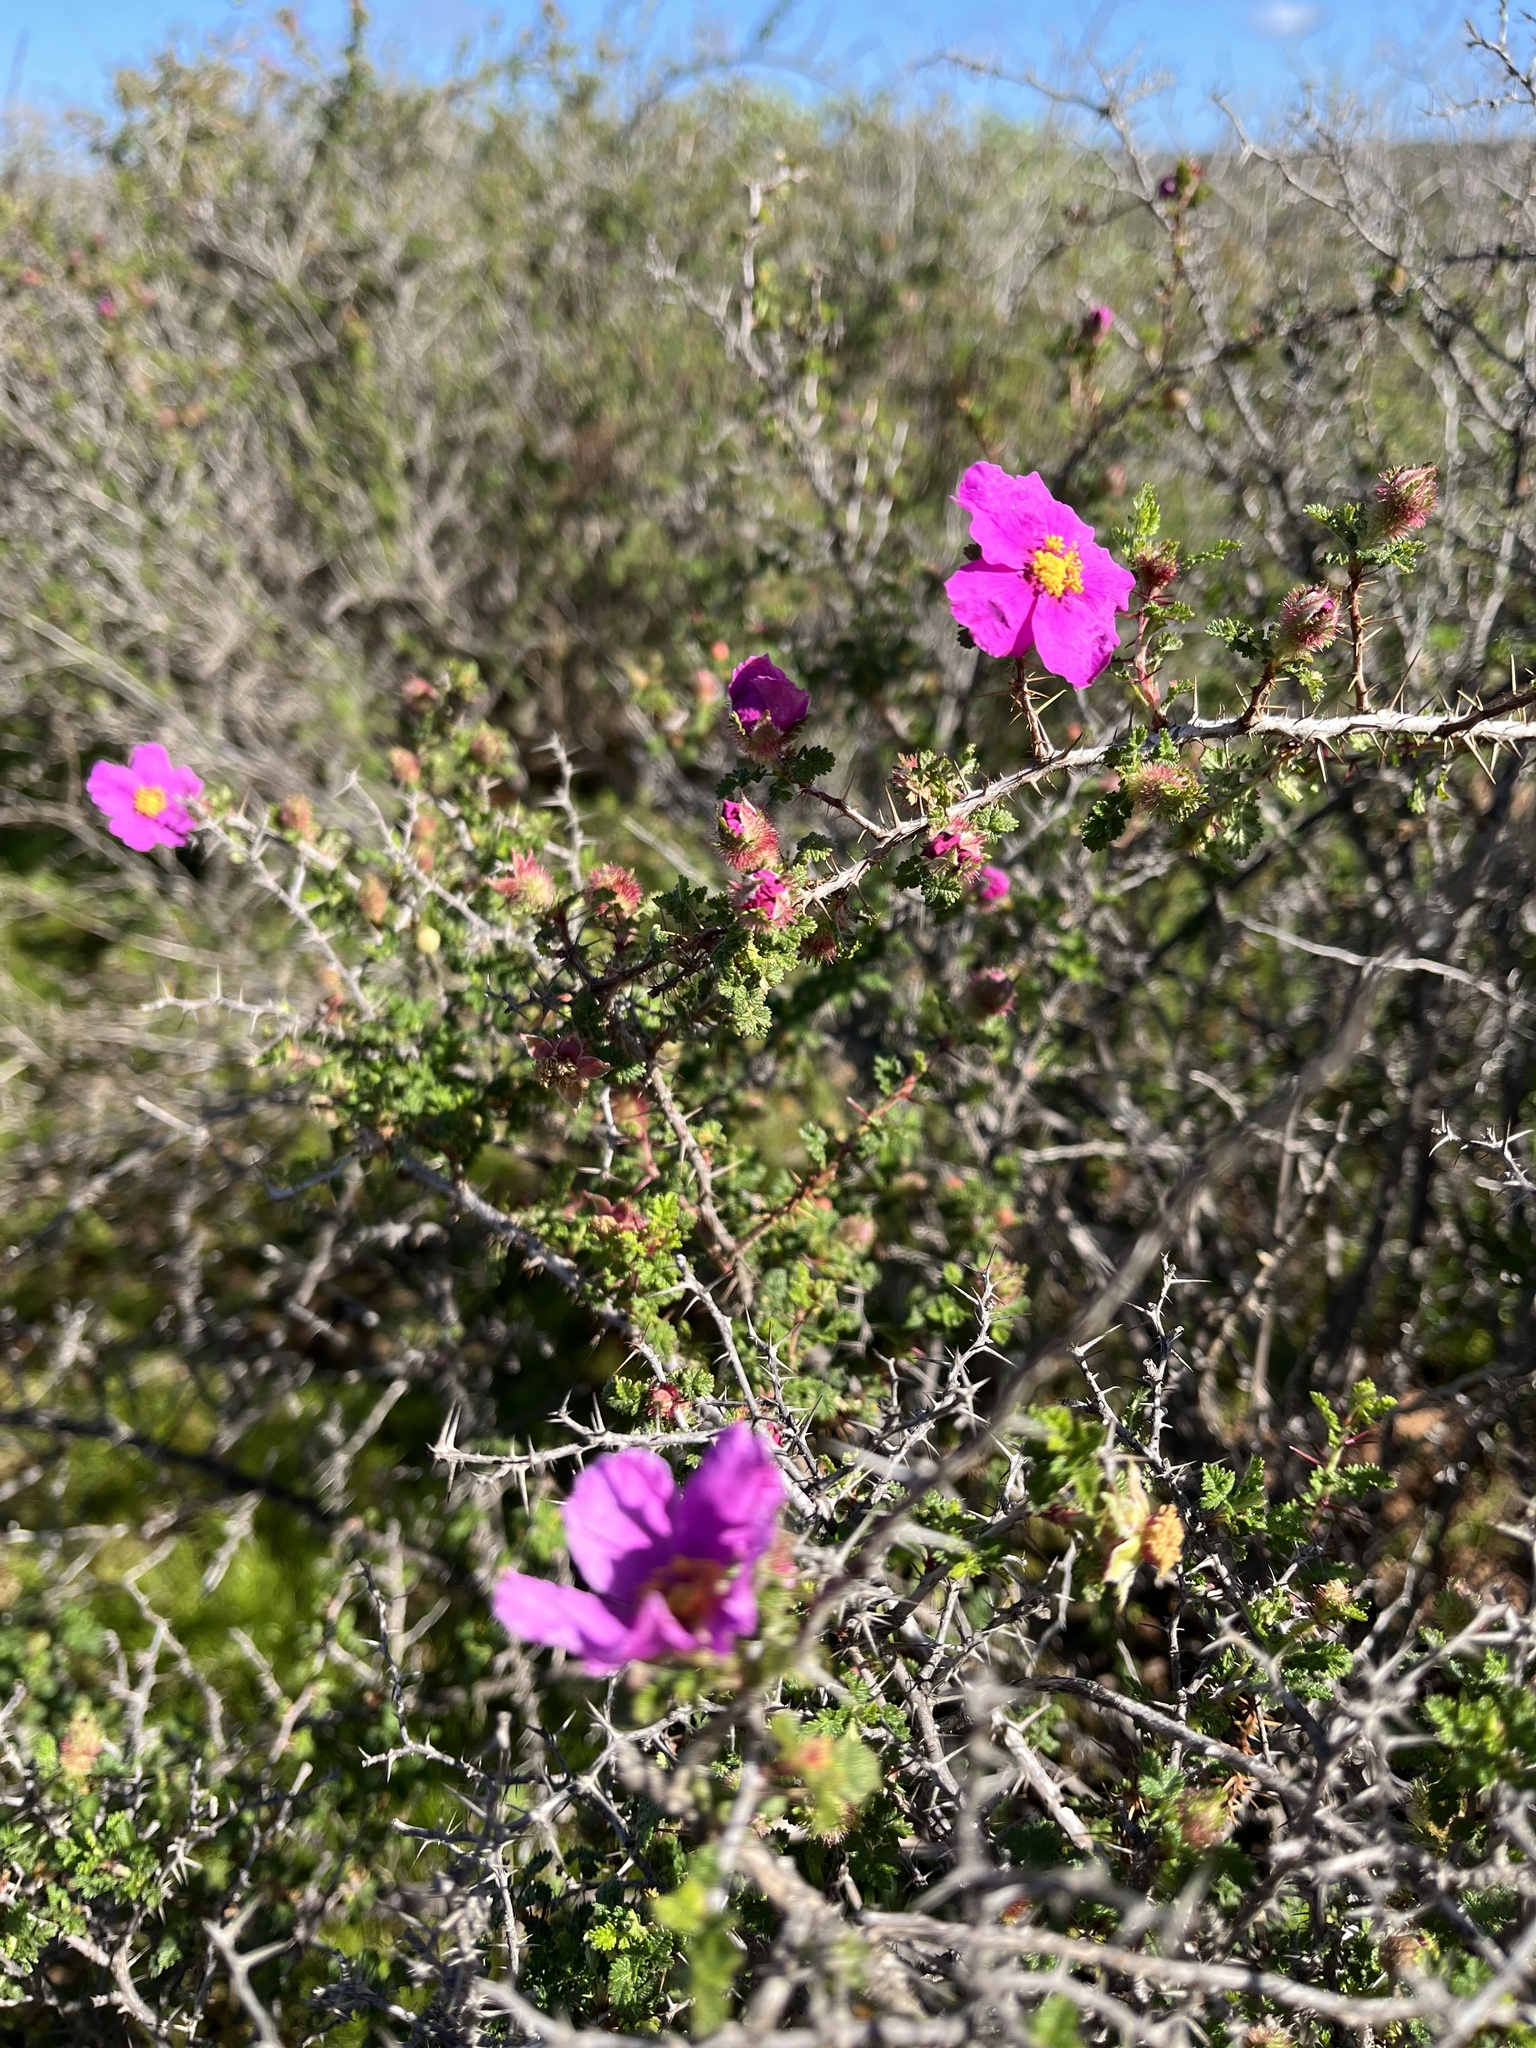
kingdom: Plantae
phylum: Tracheophyta
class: Magnoliopsida
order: Rosales
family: Rosaceae
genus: Rosa
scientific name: Rosa minutifolia
